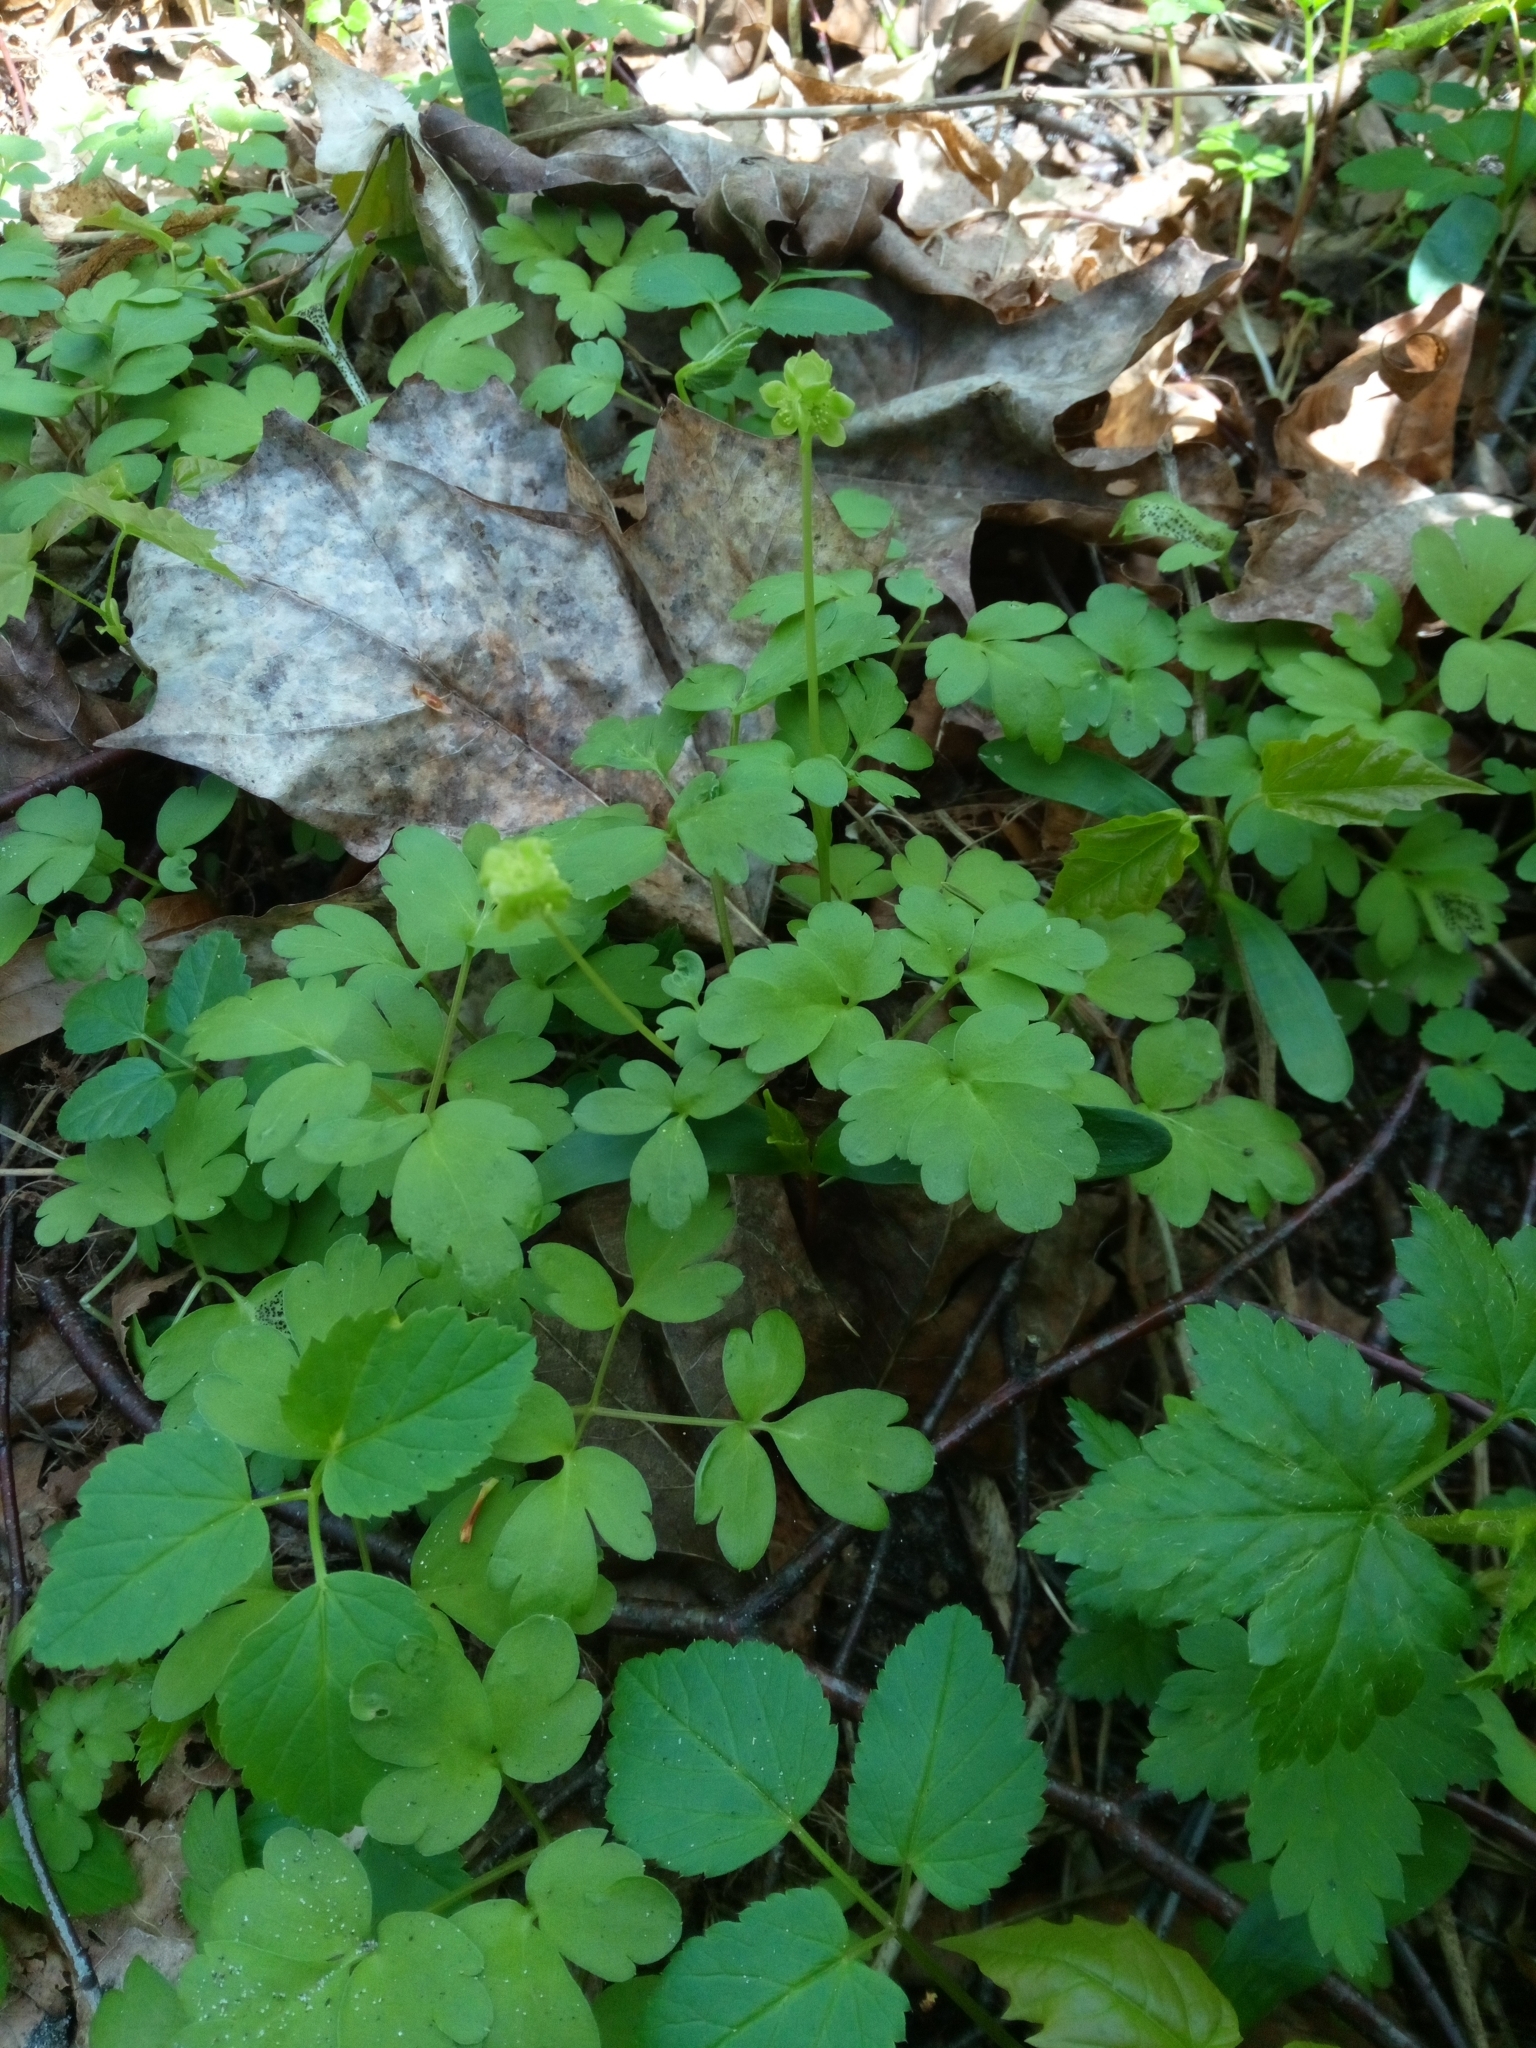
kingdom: Plantae
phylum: Tracheophyta
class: Magnoliopsida
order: Dipsacales
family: Viburnaceae
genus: Adoxa
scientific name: Adoxa moschatellina
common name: Moschatel
